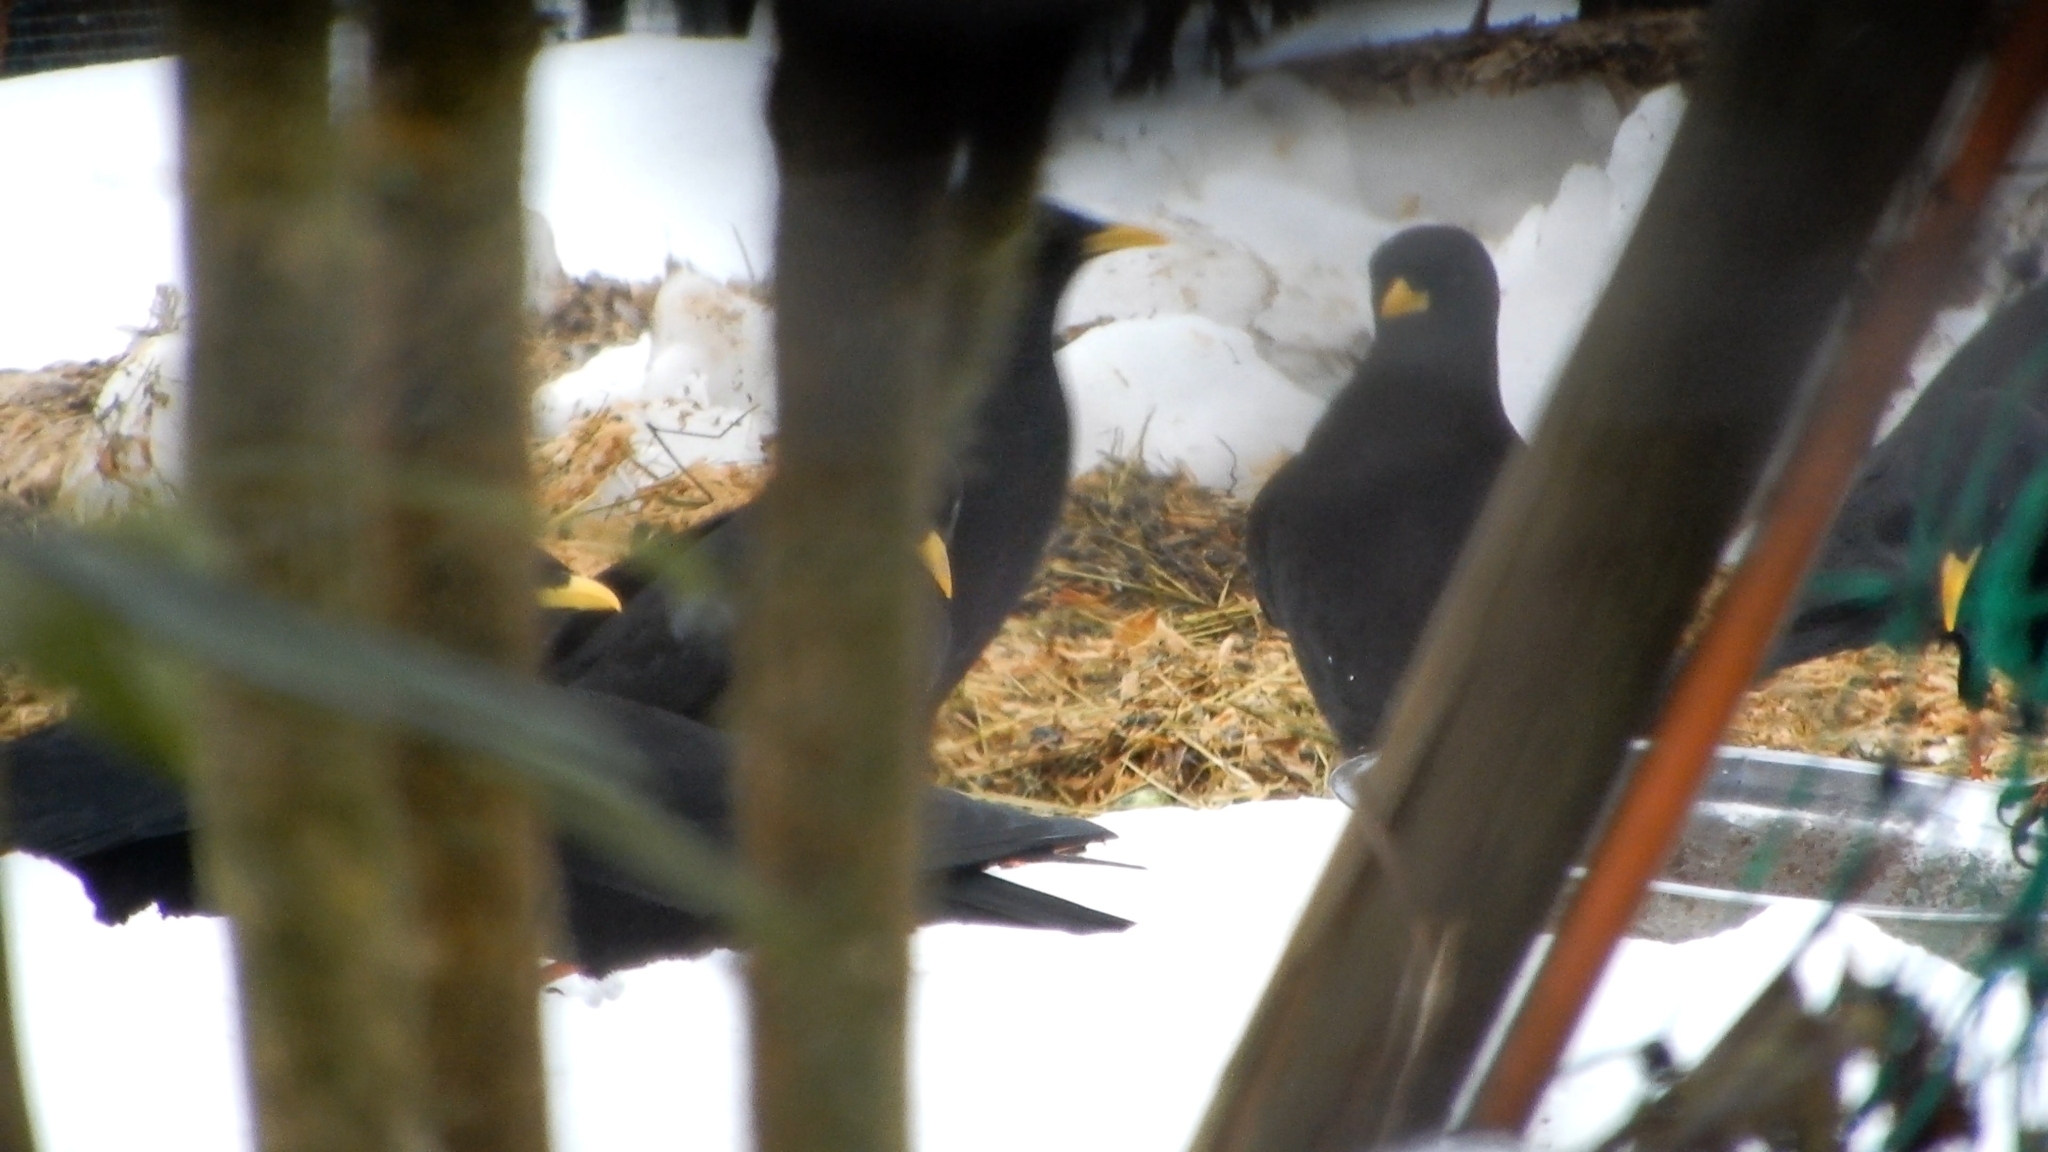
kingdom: Animalia
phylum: Chordata
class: Aves
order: Passeriformes
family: Corvidae
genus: Pyrrhocorax
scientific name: Pyrrhocorax graculus
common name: Alpine chough
